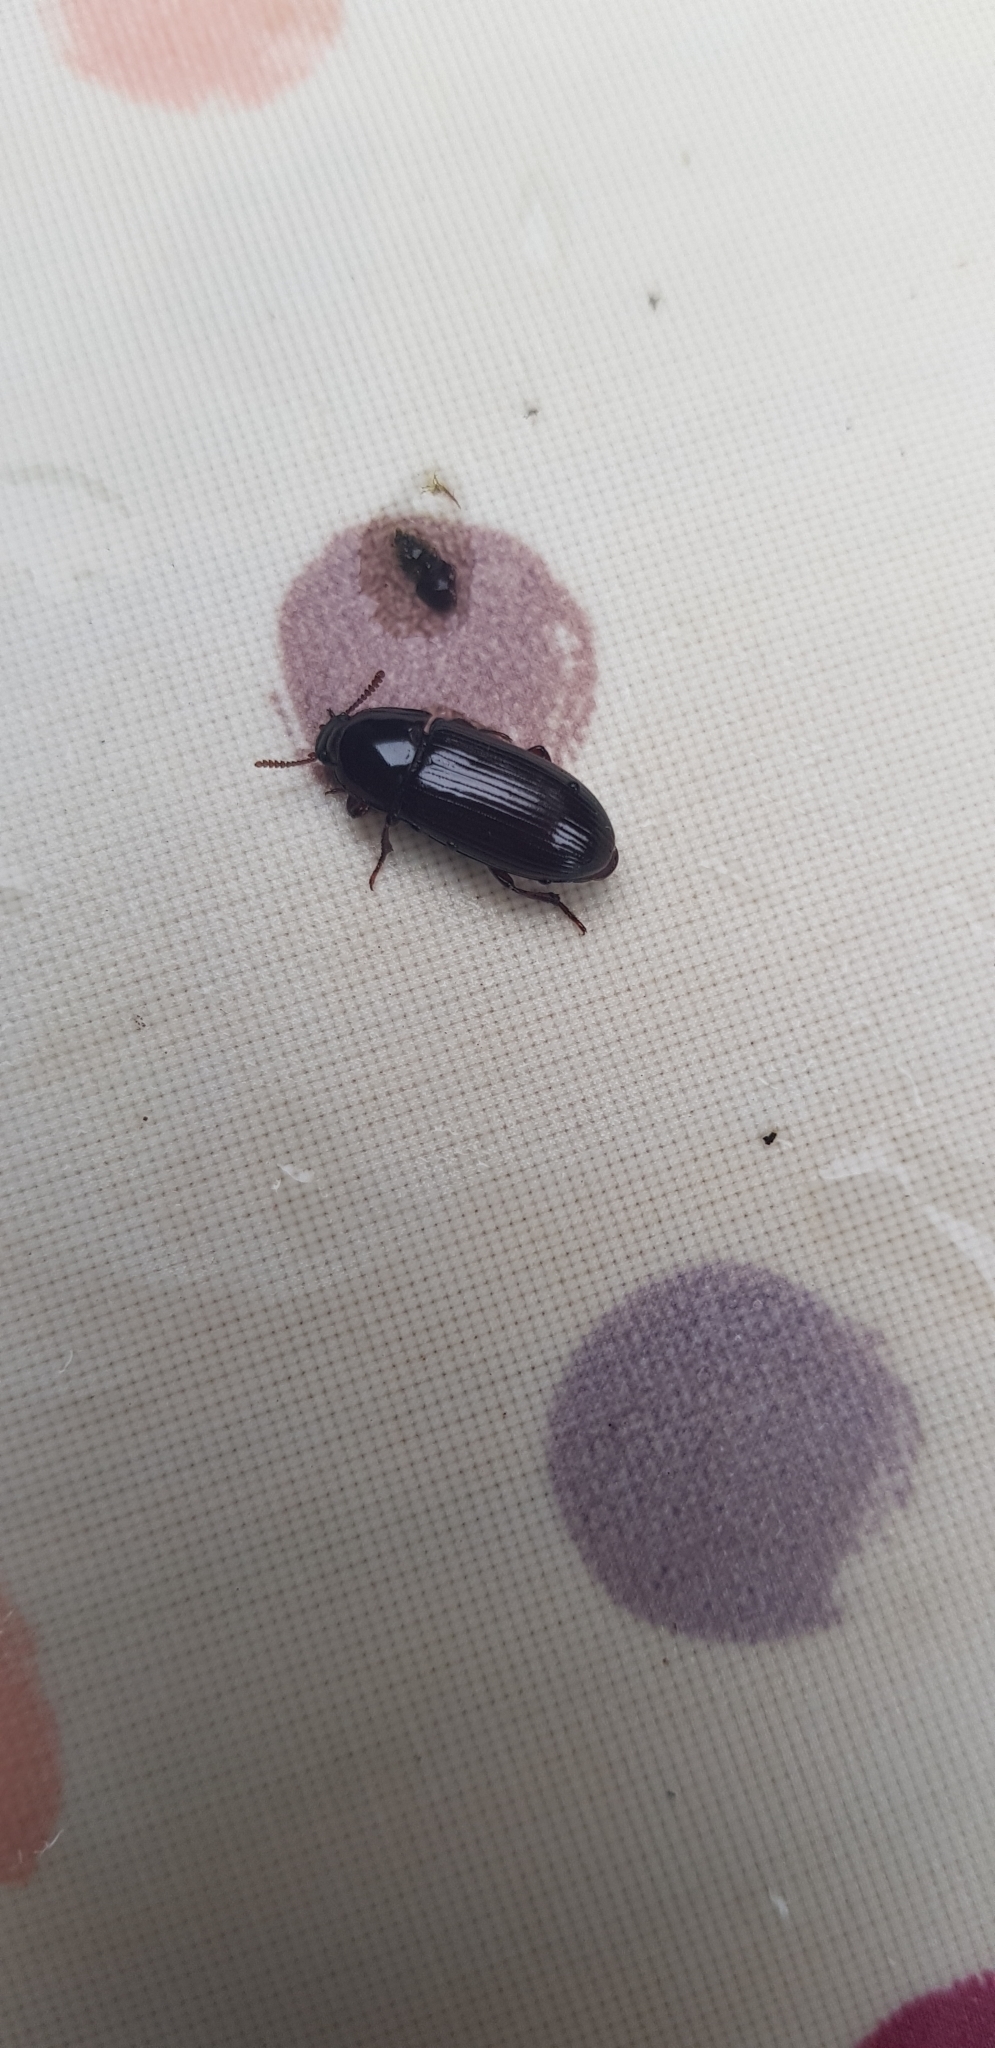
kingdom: Animalia
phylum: Arthropoda
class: Insecta
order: Coleoptera
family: Tenebrionidae
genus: Uloma
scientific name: Uloma tenebrionoides
